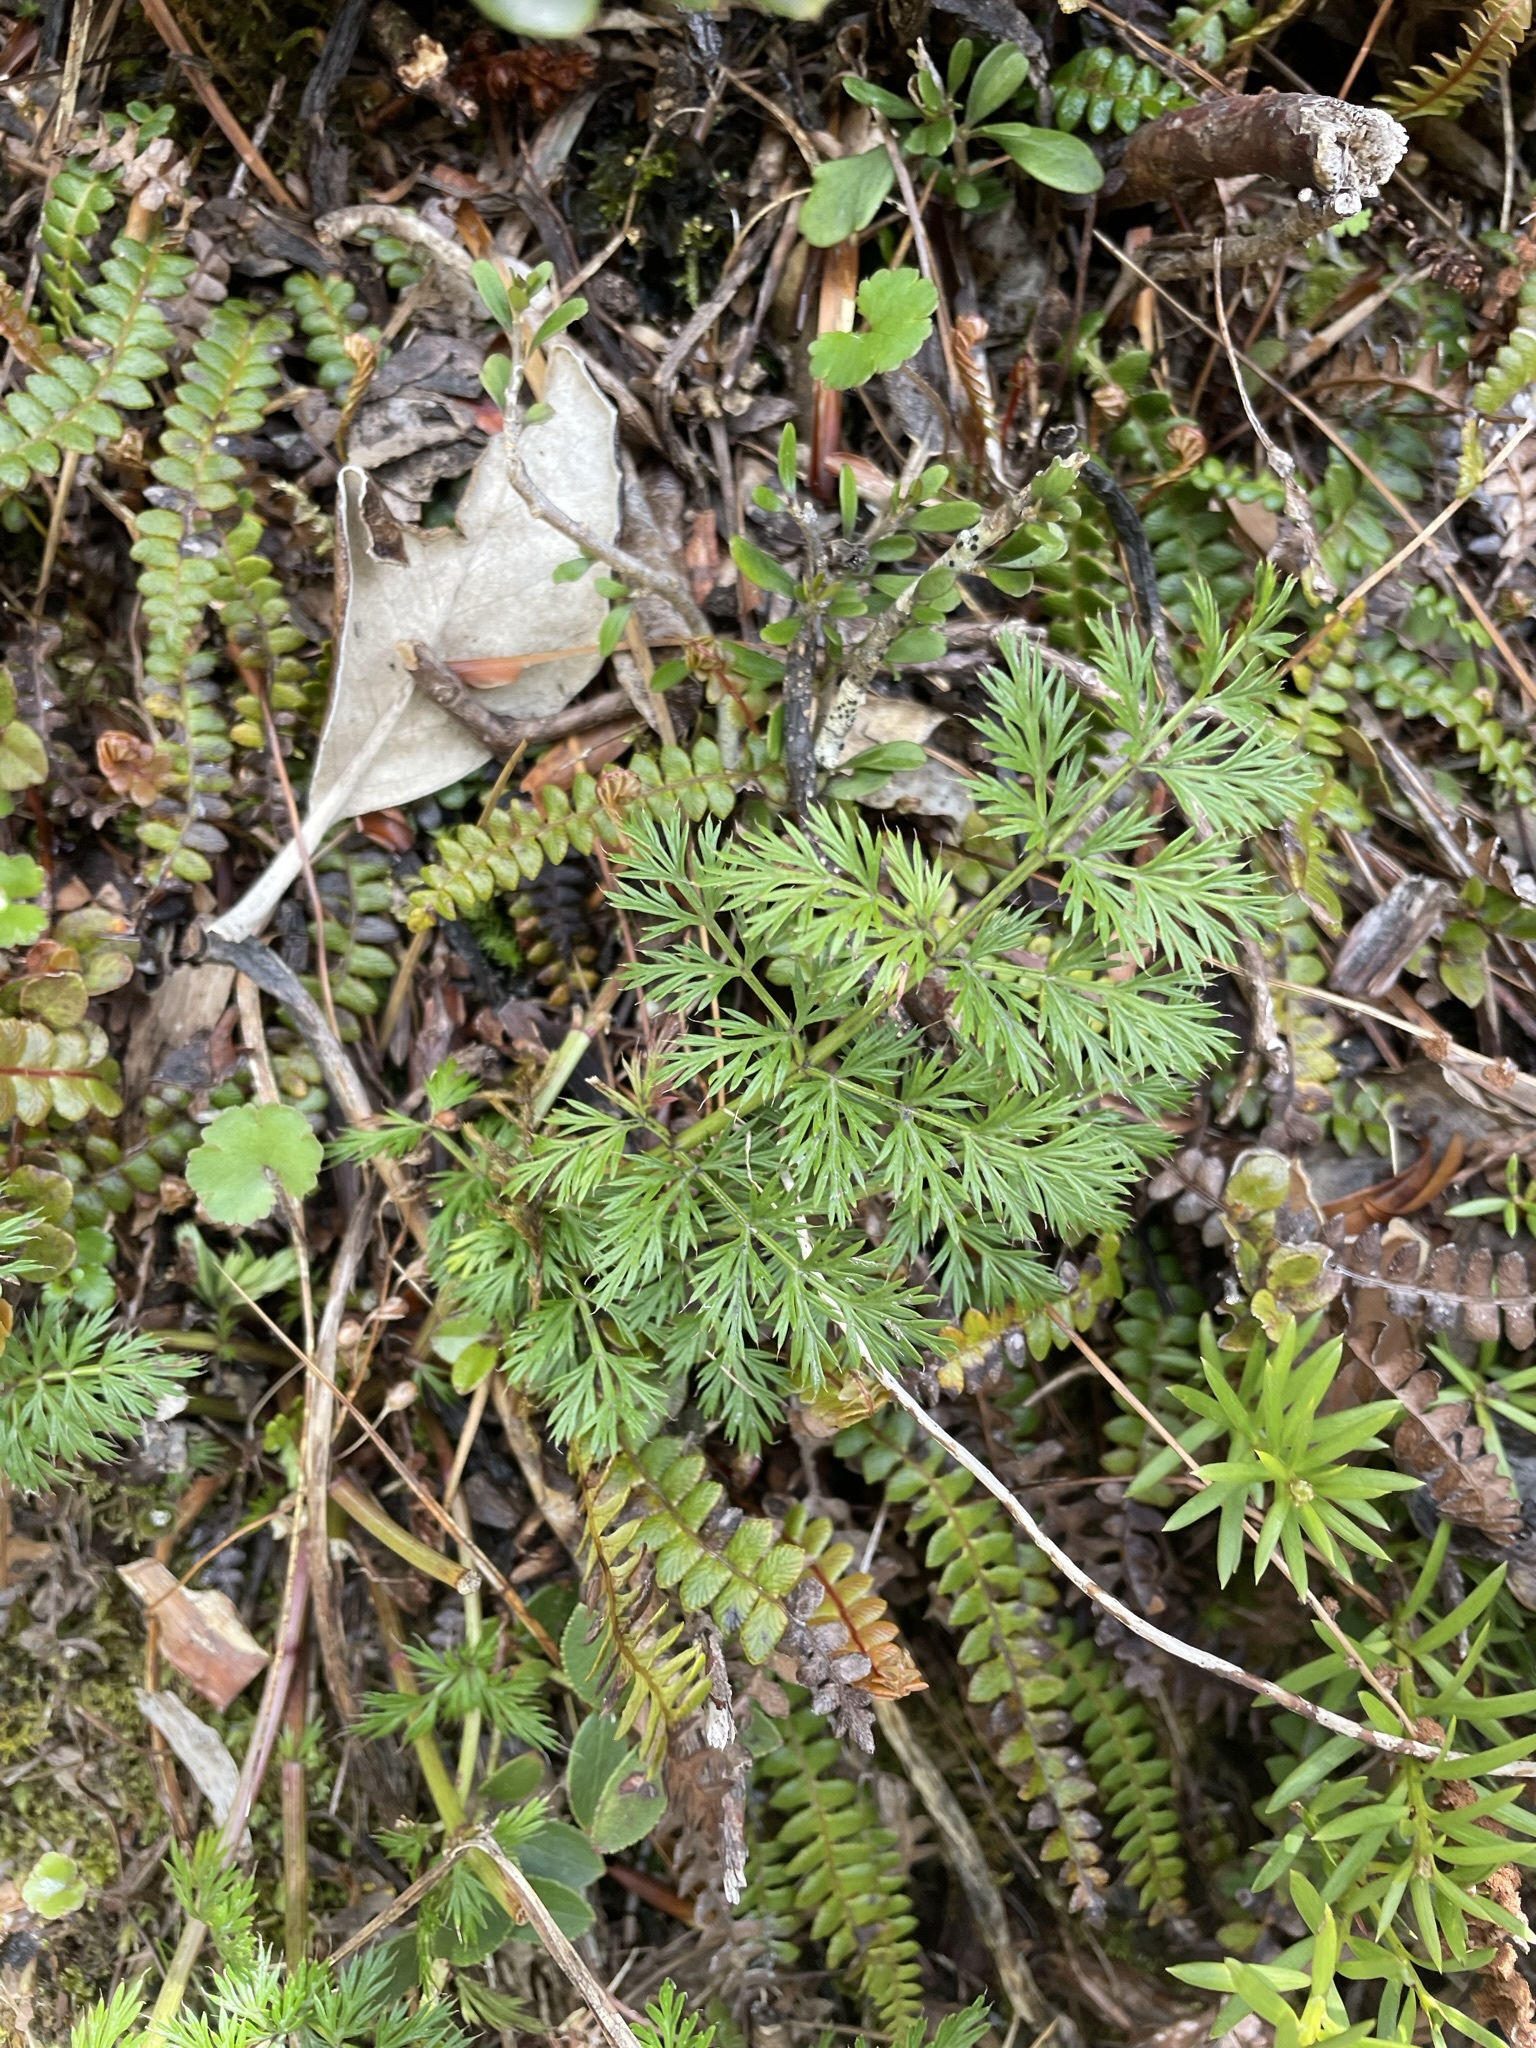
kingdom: Plantae
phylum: Tracheophyta
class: Magnoliopsida
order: Apiales
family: Apiaceae
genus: Anisotome
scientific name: Anisotome haastii
